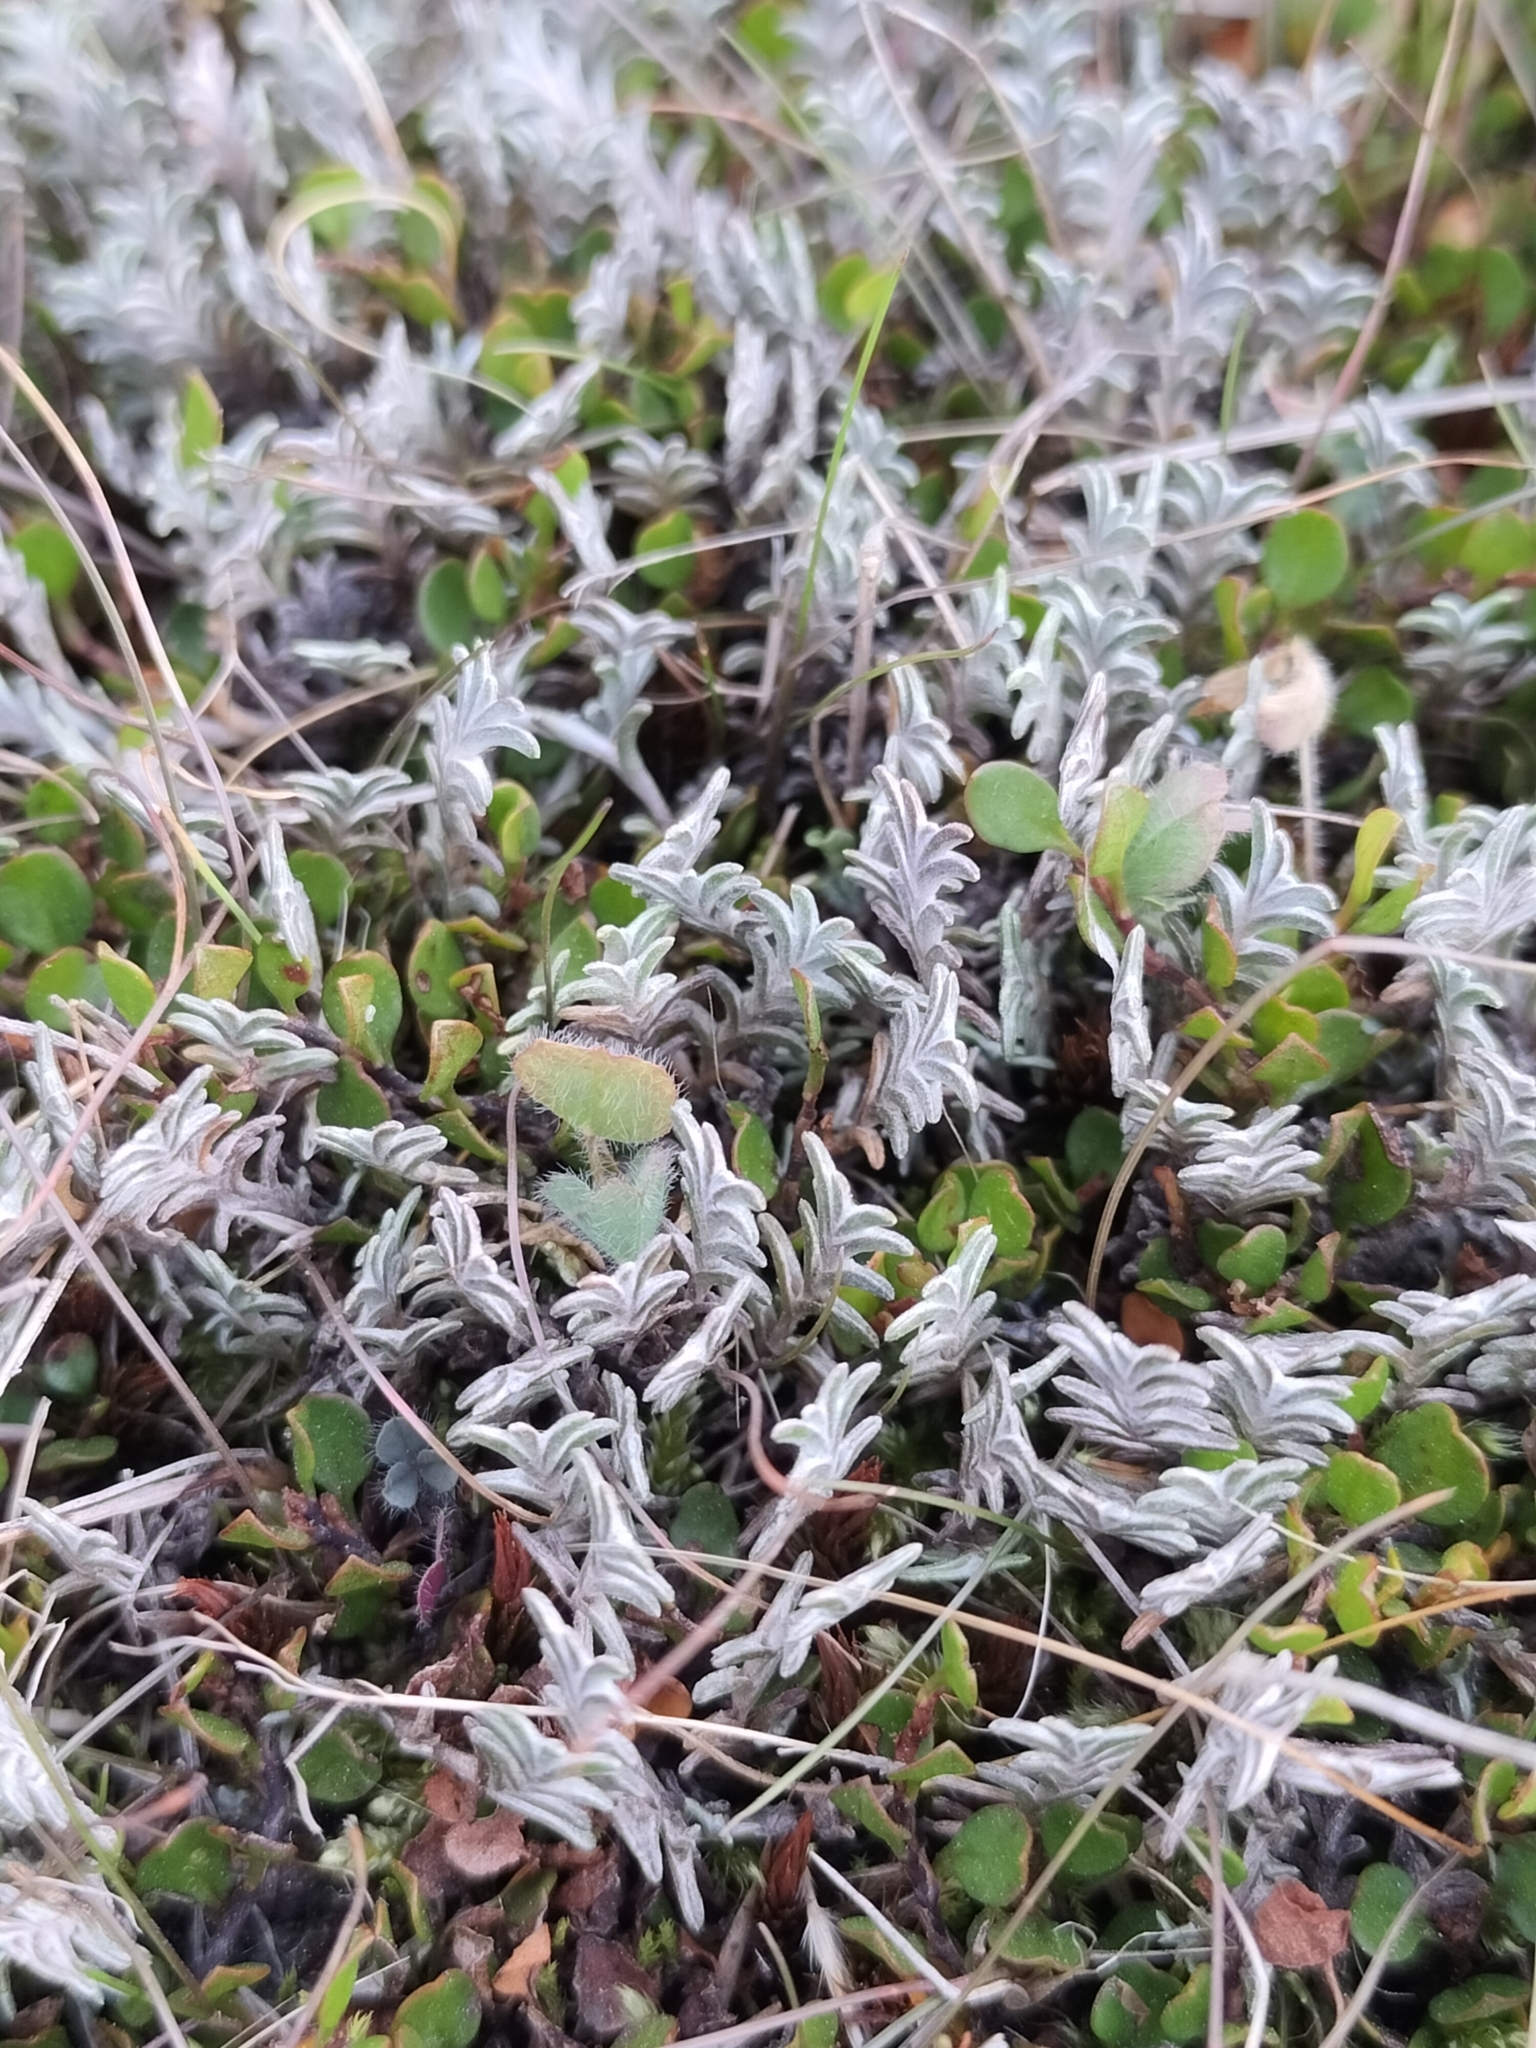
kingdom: Plantae
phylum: Tracheophyta
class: Magnoliopsida
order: Asterales
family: Asteraceae
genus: Raoulia
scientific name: Raoulia monroi
